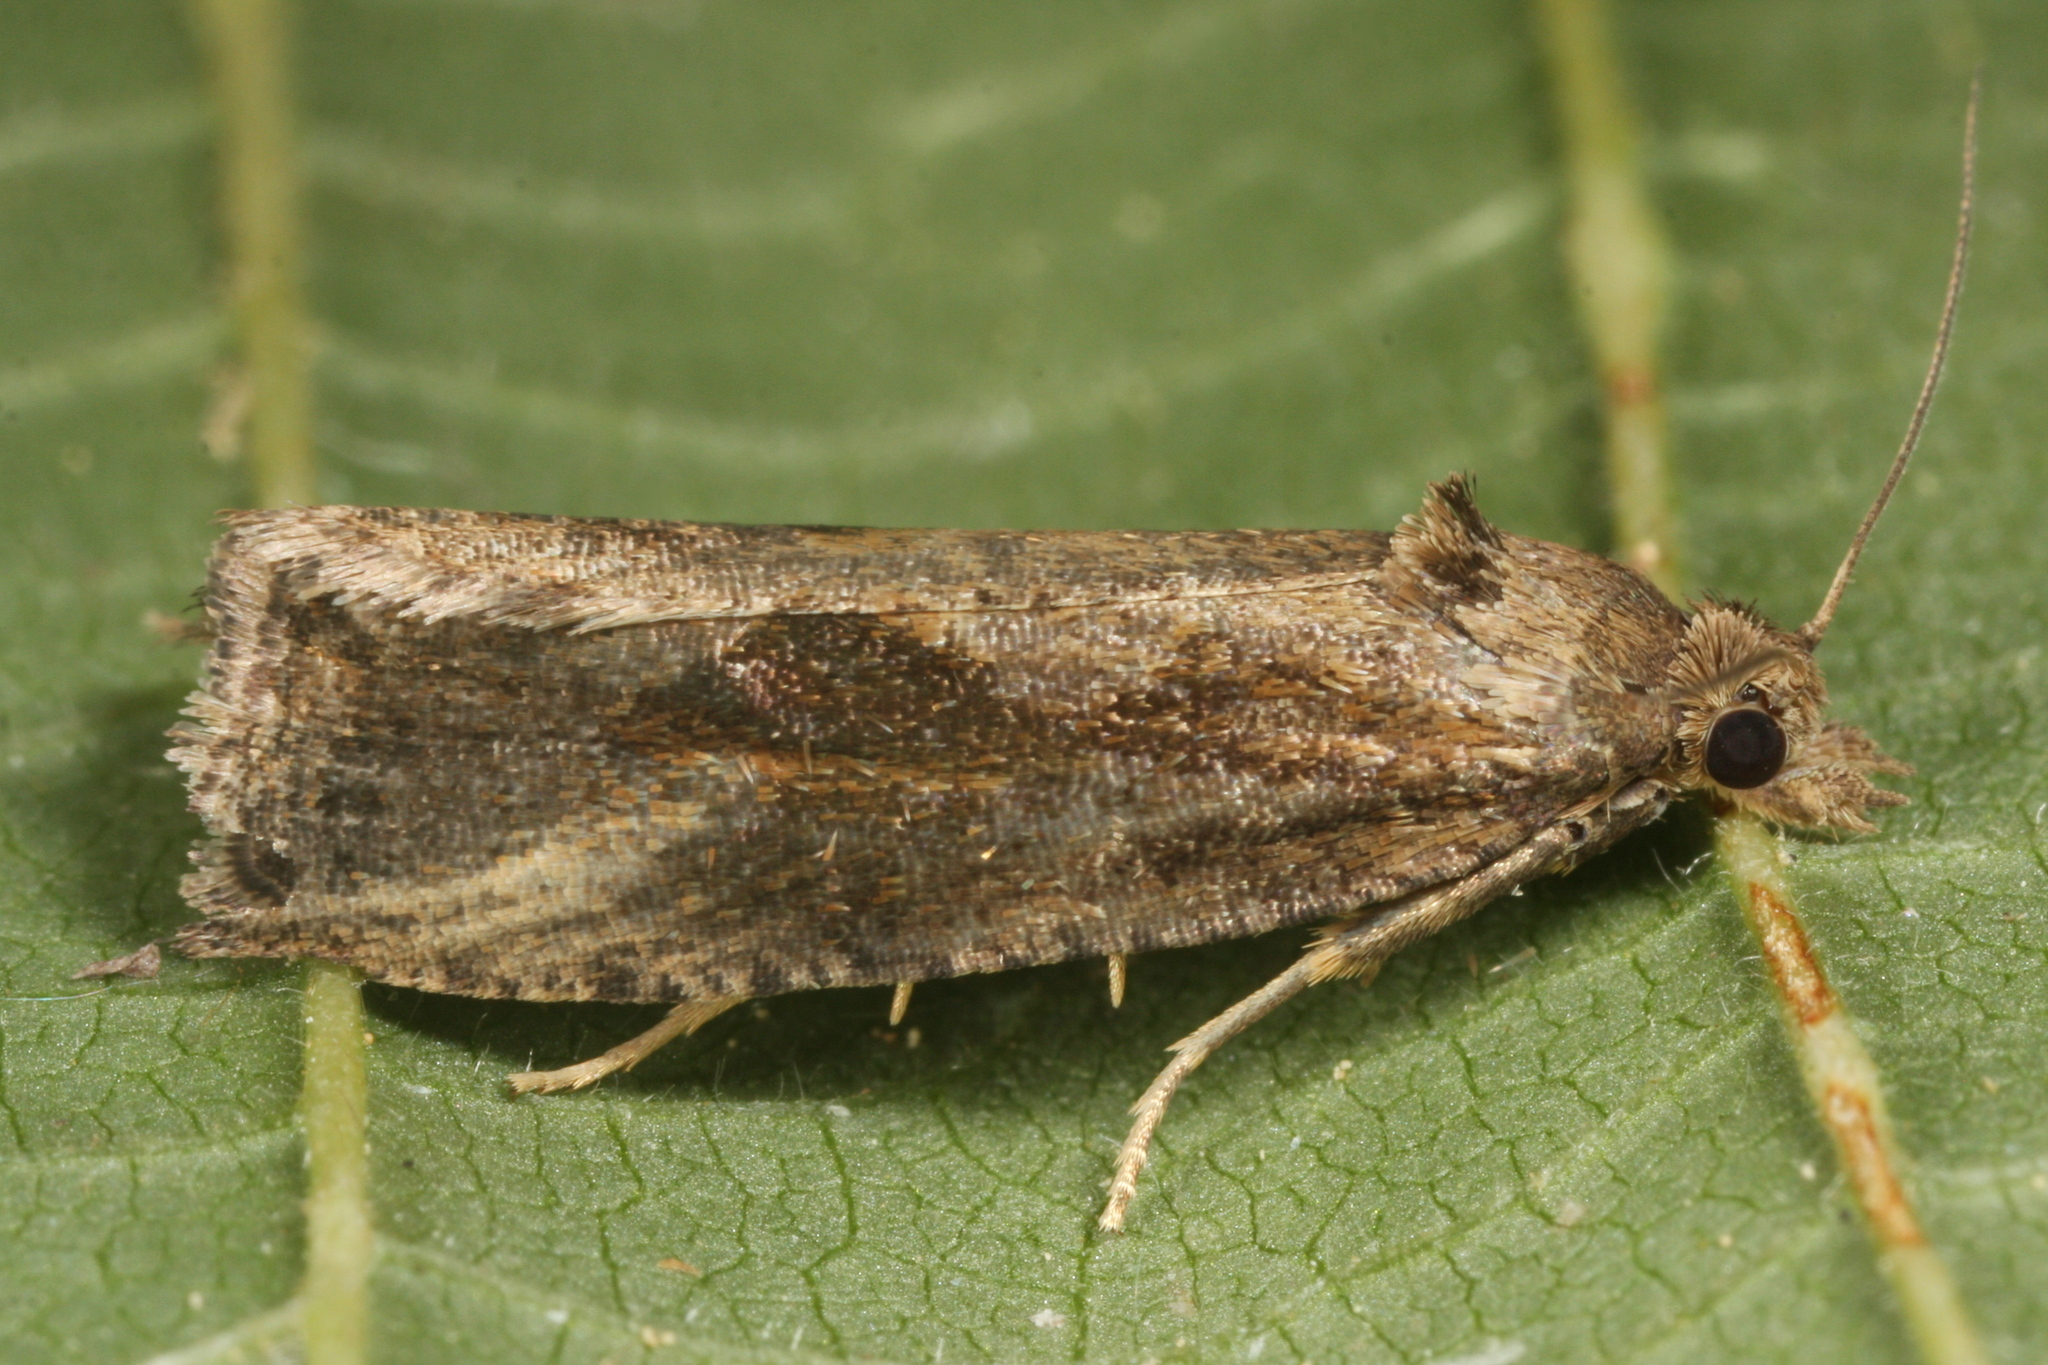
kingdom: Animalia
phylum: Arthropoda
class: Insecta
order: Lepidoptera
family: Tortricidae
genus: Endothenia
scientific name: Endothenia ericetana
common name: Heath marble
